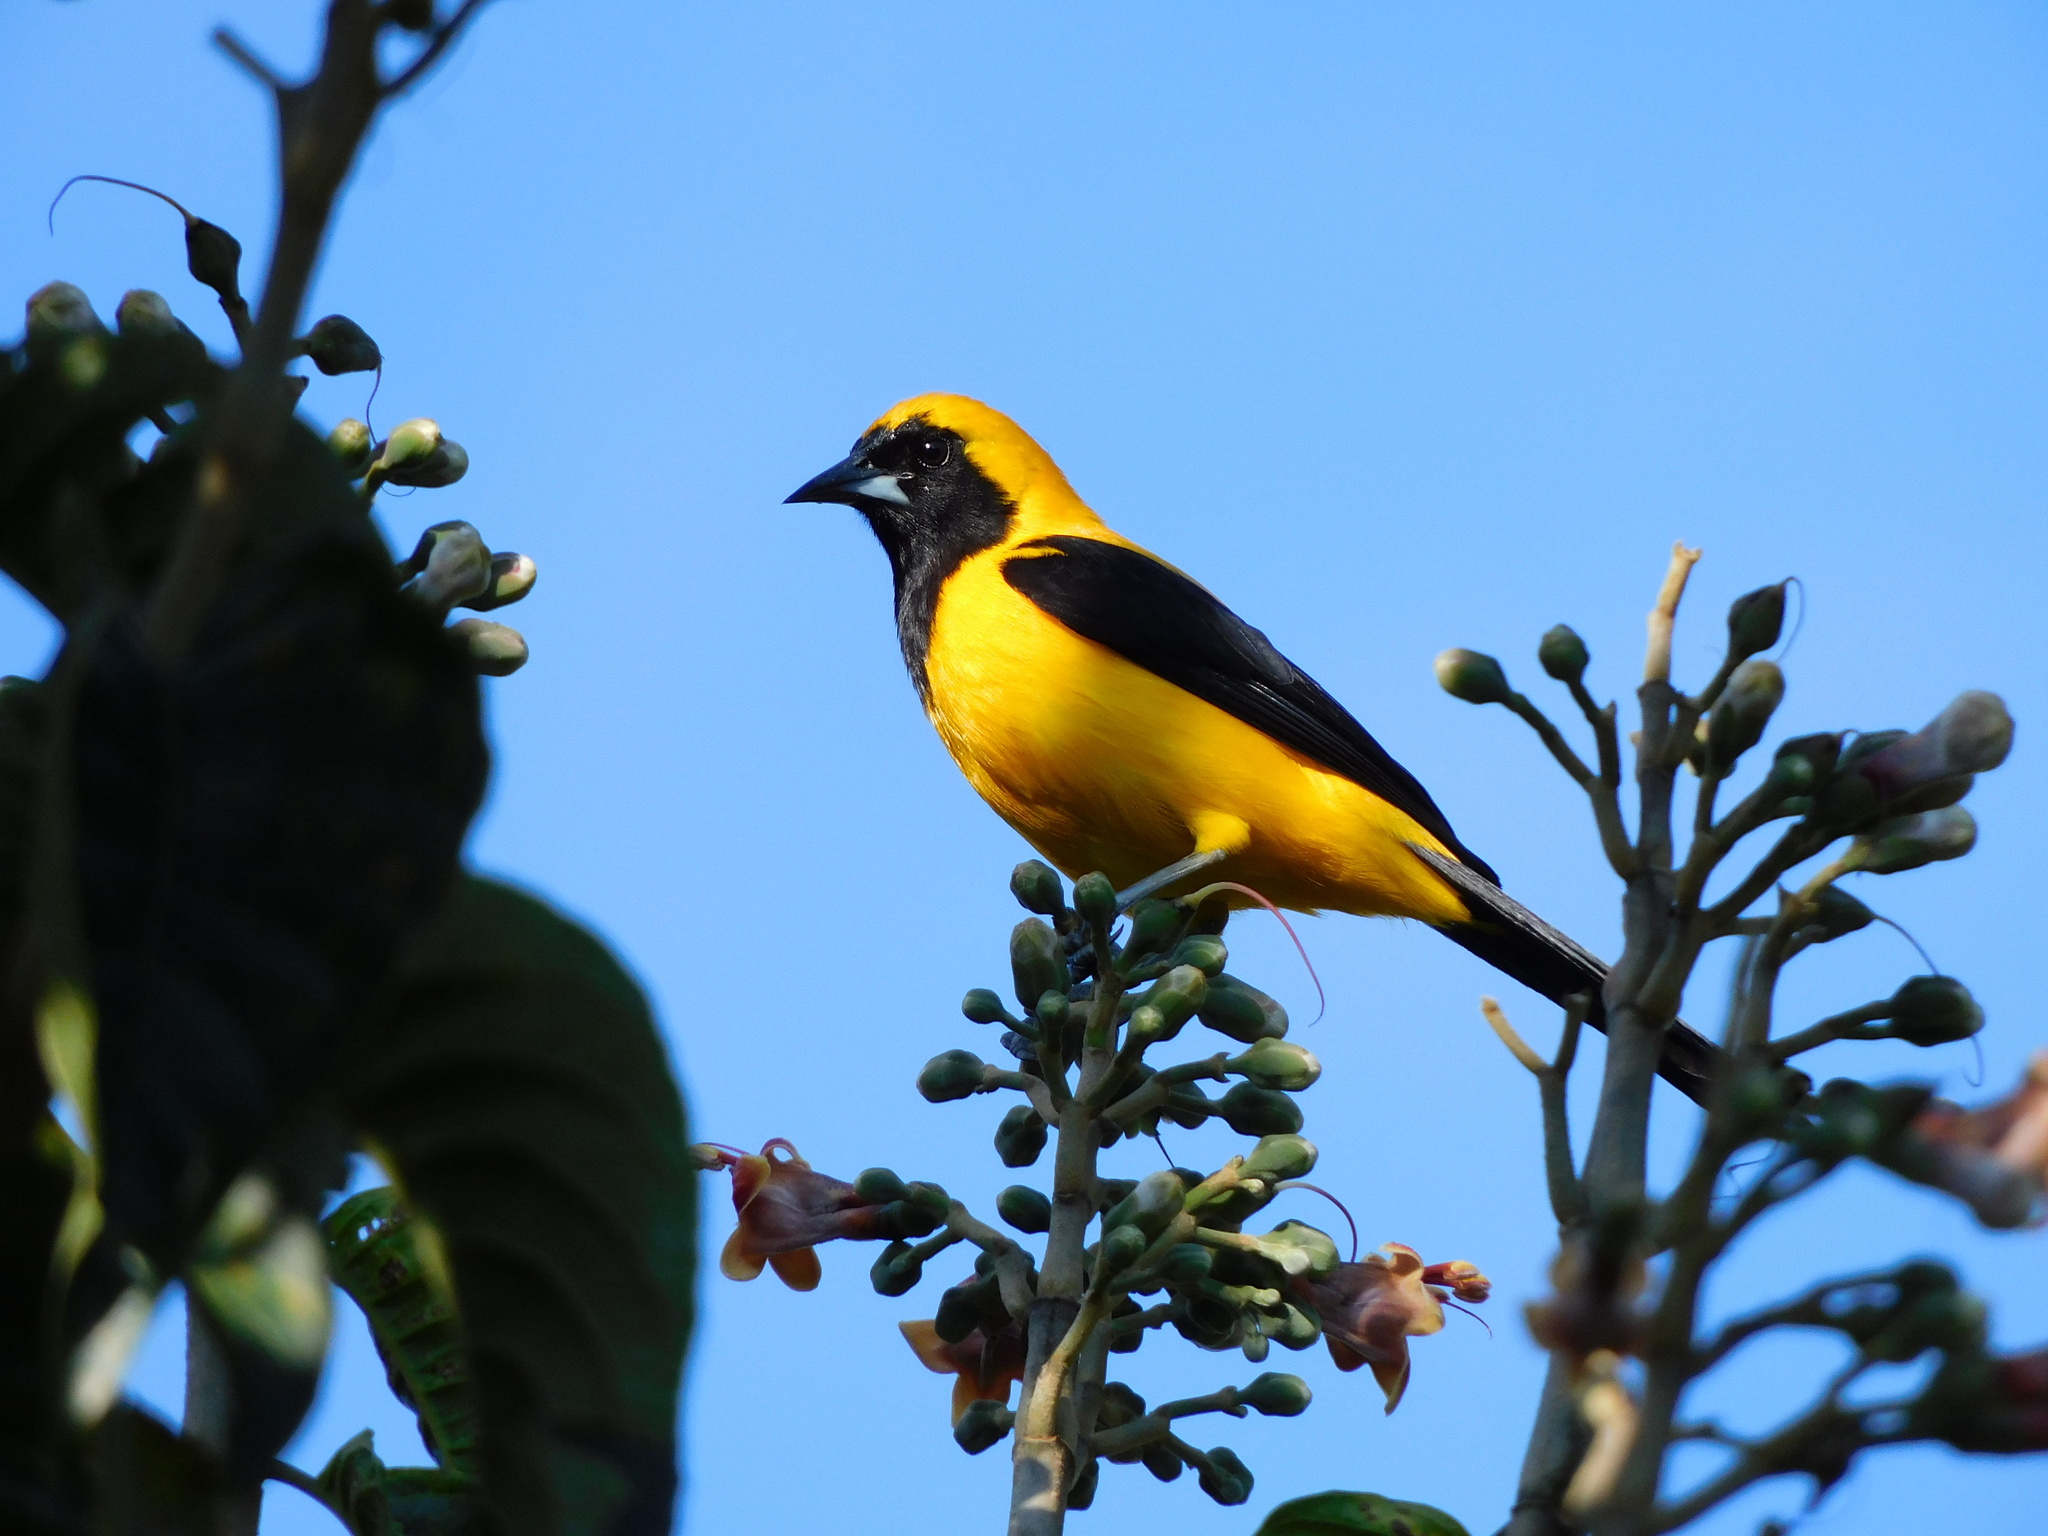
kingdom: Animalia
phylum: Chordata
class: Aves
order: Passeriformes
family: Icteridae
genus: Icterus
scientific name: Icterus chrysater
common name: Yellow-backed oriole
